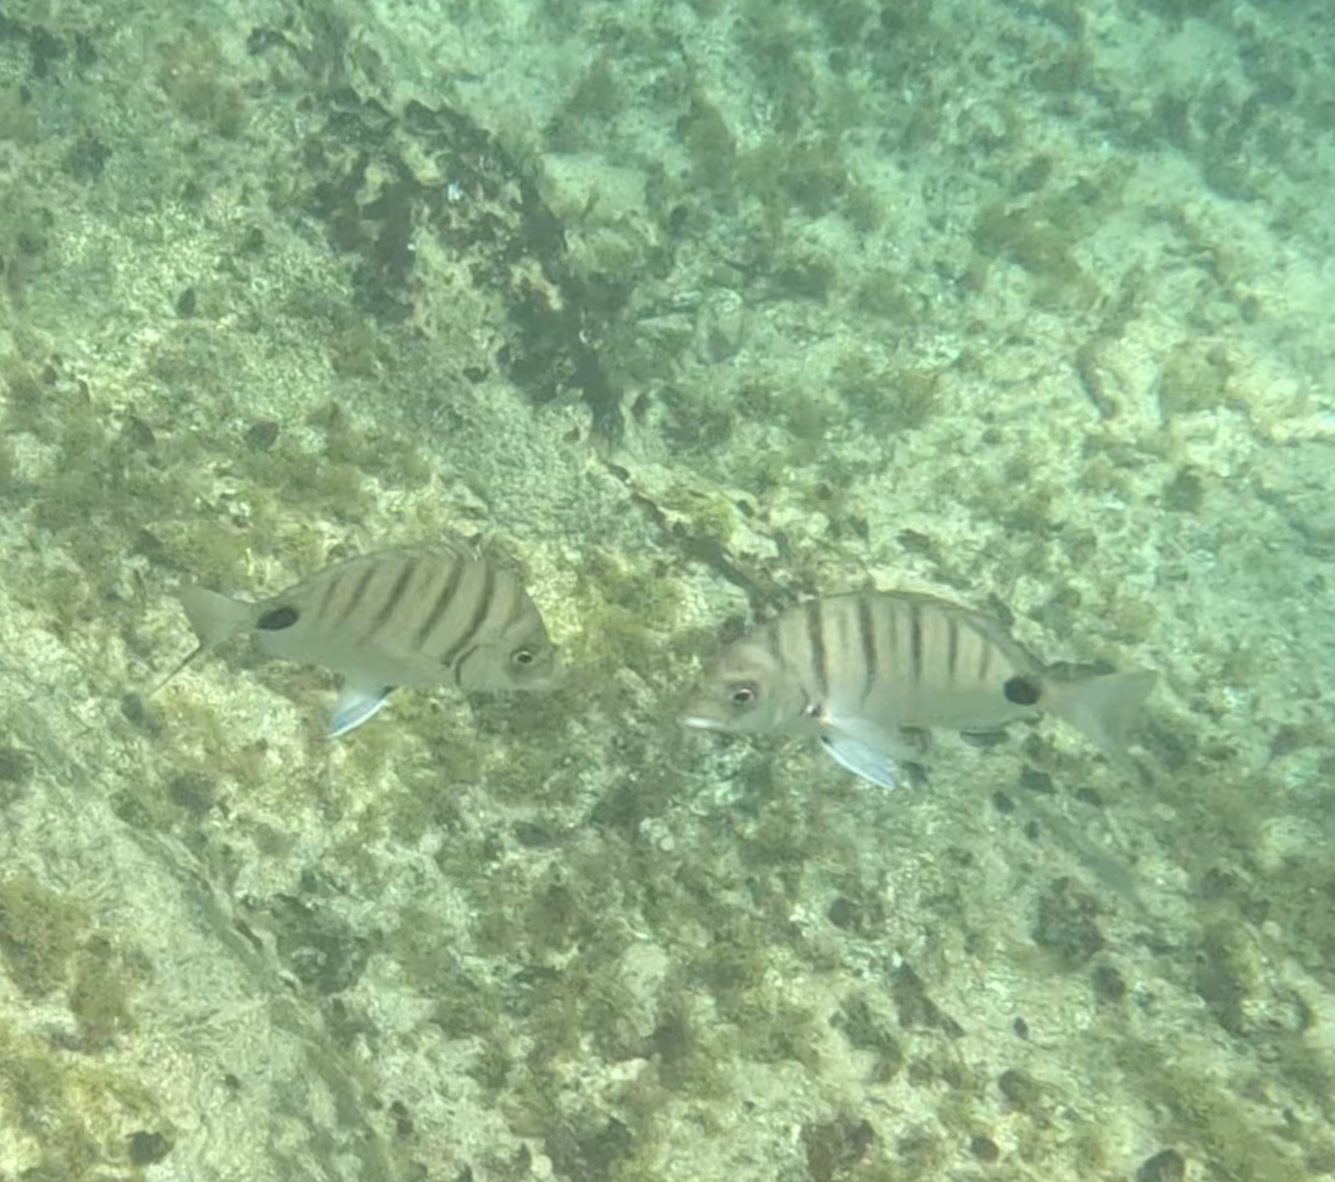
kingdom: Animalia
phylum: Chordata
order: Perciformes
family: Sparidae
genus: Diplodus
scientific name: Diplodus cadenati
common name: Moroccan white seabream
